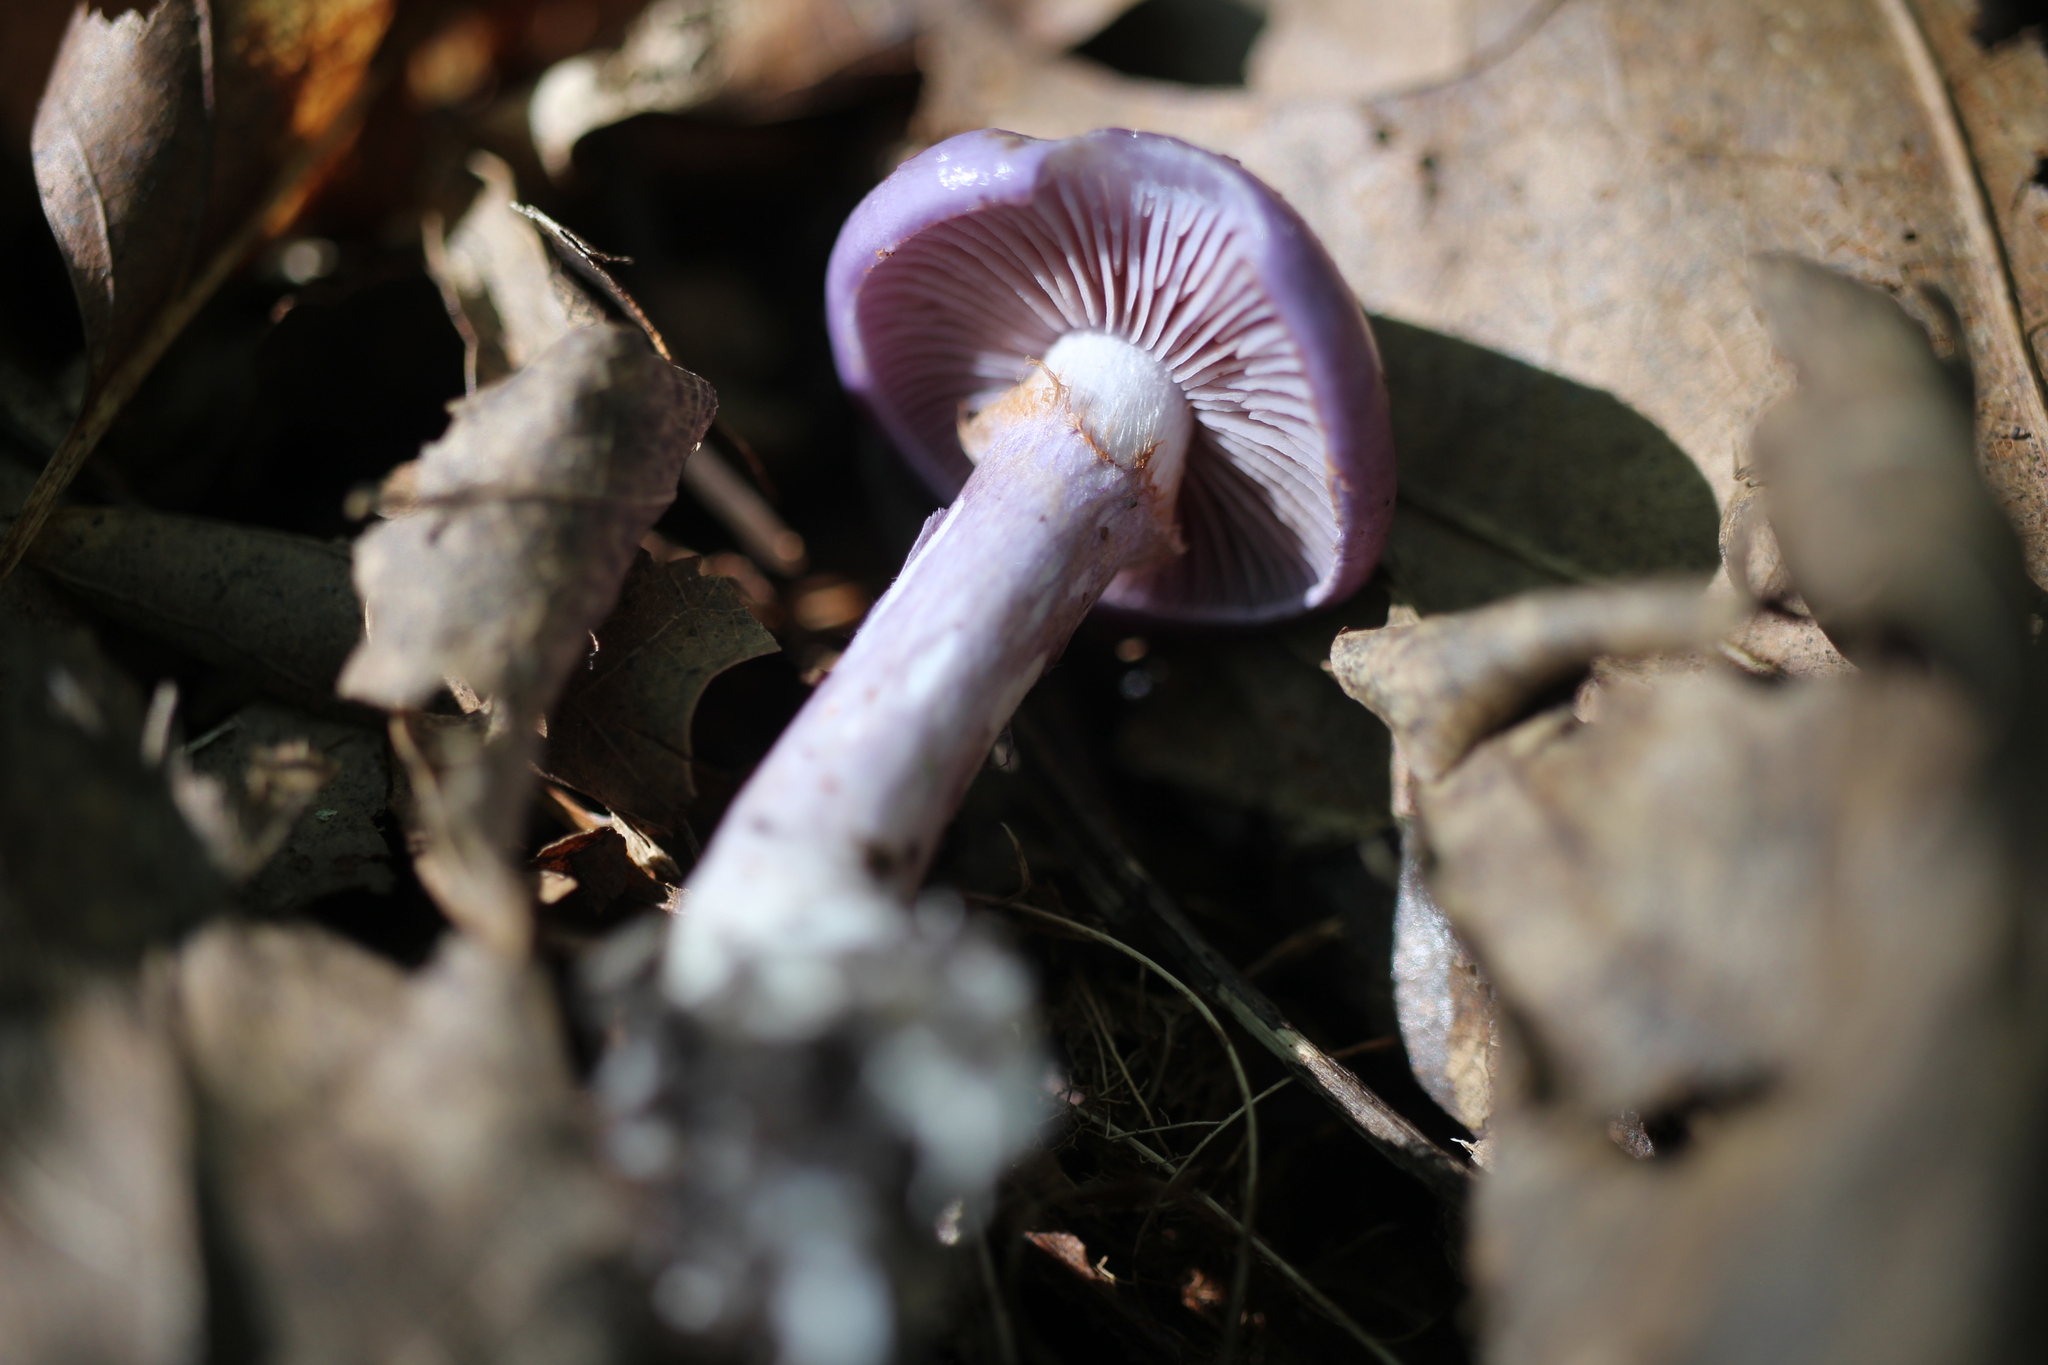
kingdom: Fungi
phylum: Basidiomycota
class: Agaricomycetes
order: Agaricales
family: Cortinariaceae
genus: Cortinarius
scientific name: Cortinarius iodes
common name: Viscid violet cort
